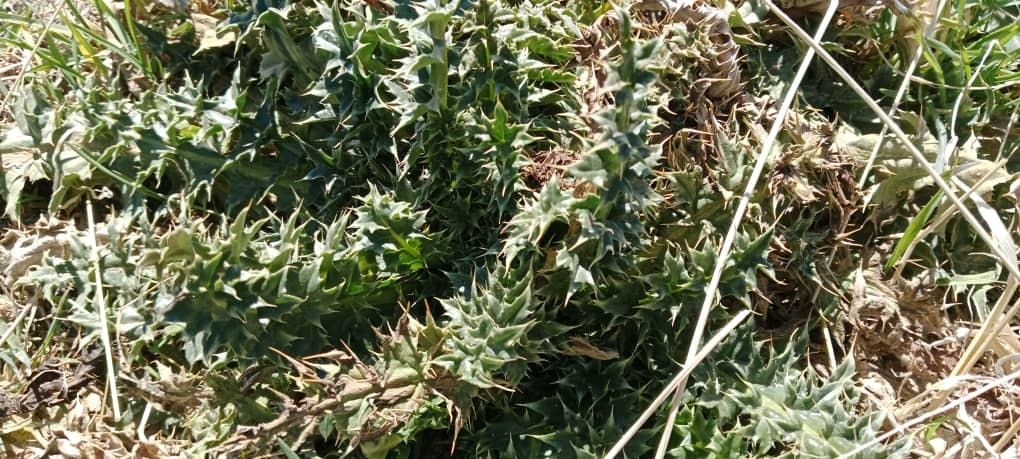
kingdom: Plantae
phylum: Tracheophyta
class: Magnoliopsida
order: Asterales
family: Asteraceae
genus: Carduus
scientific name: Carduus macrocephalus
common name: Giant thistle
